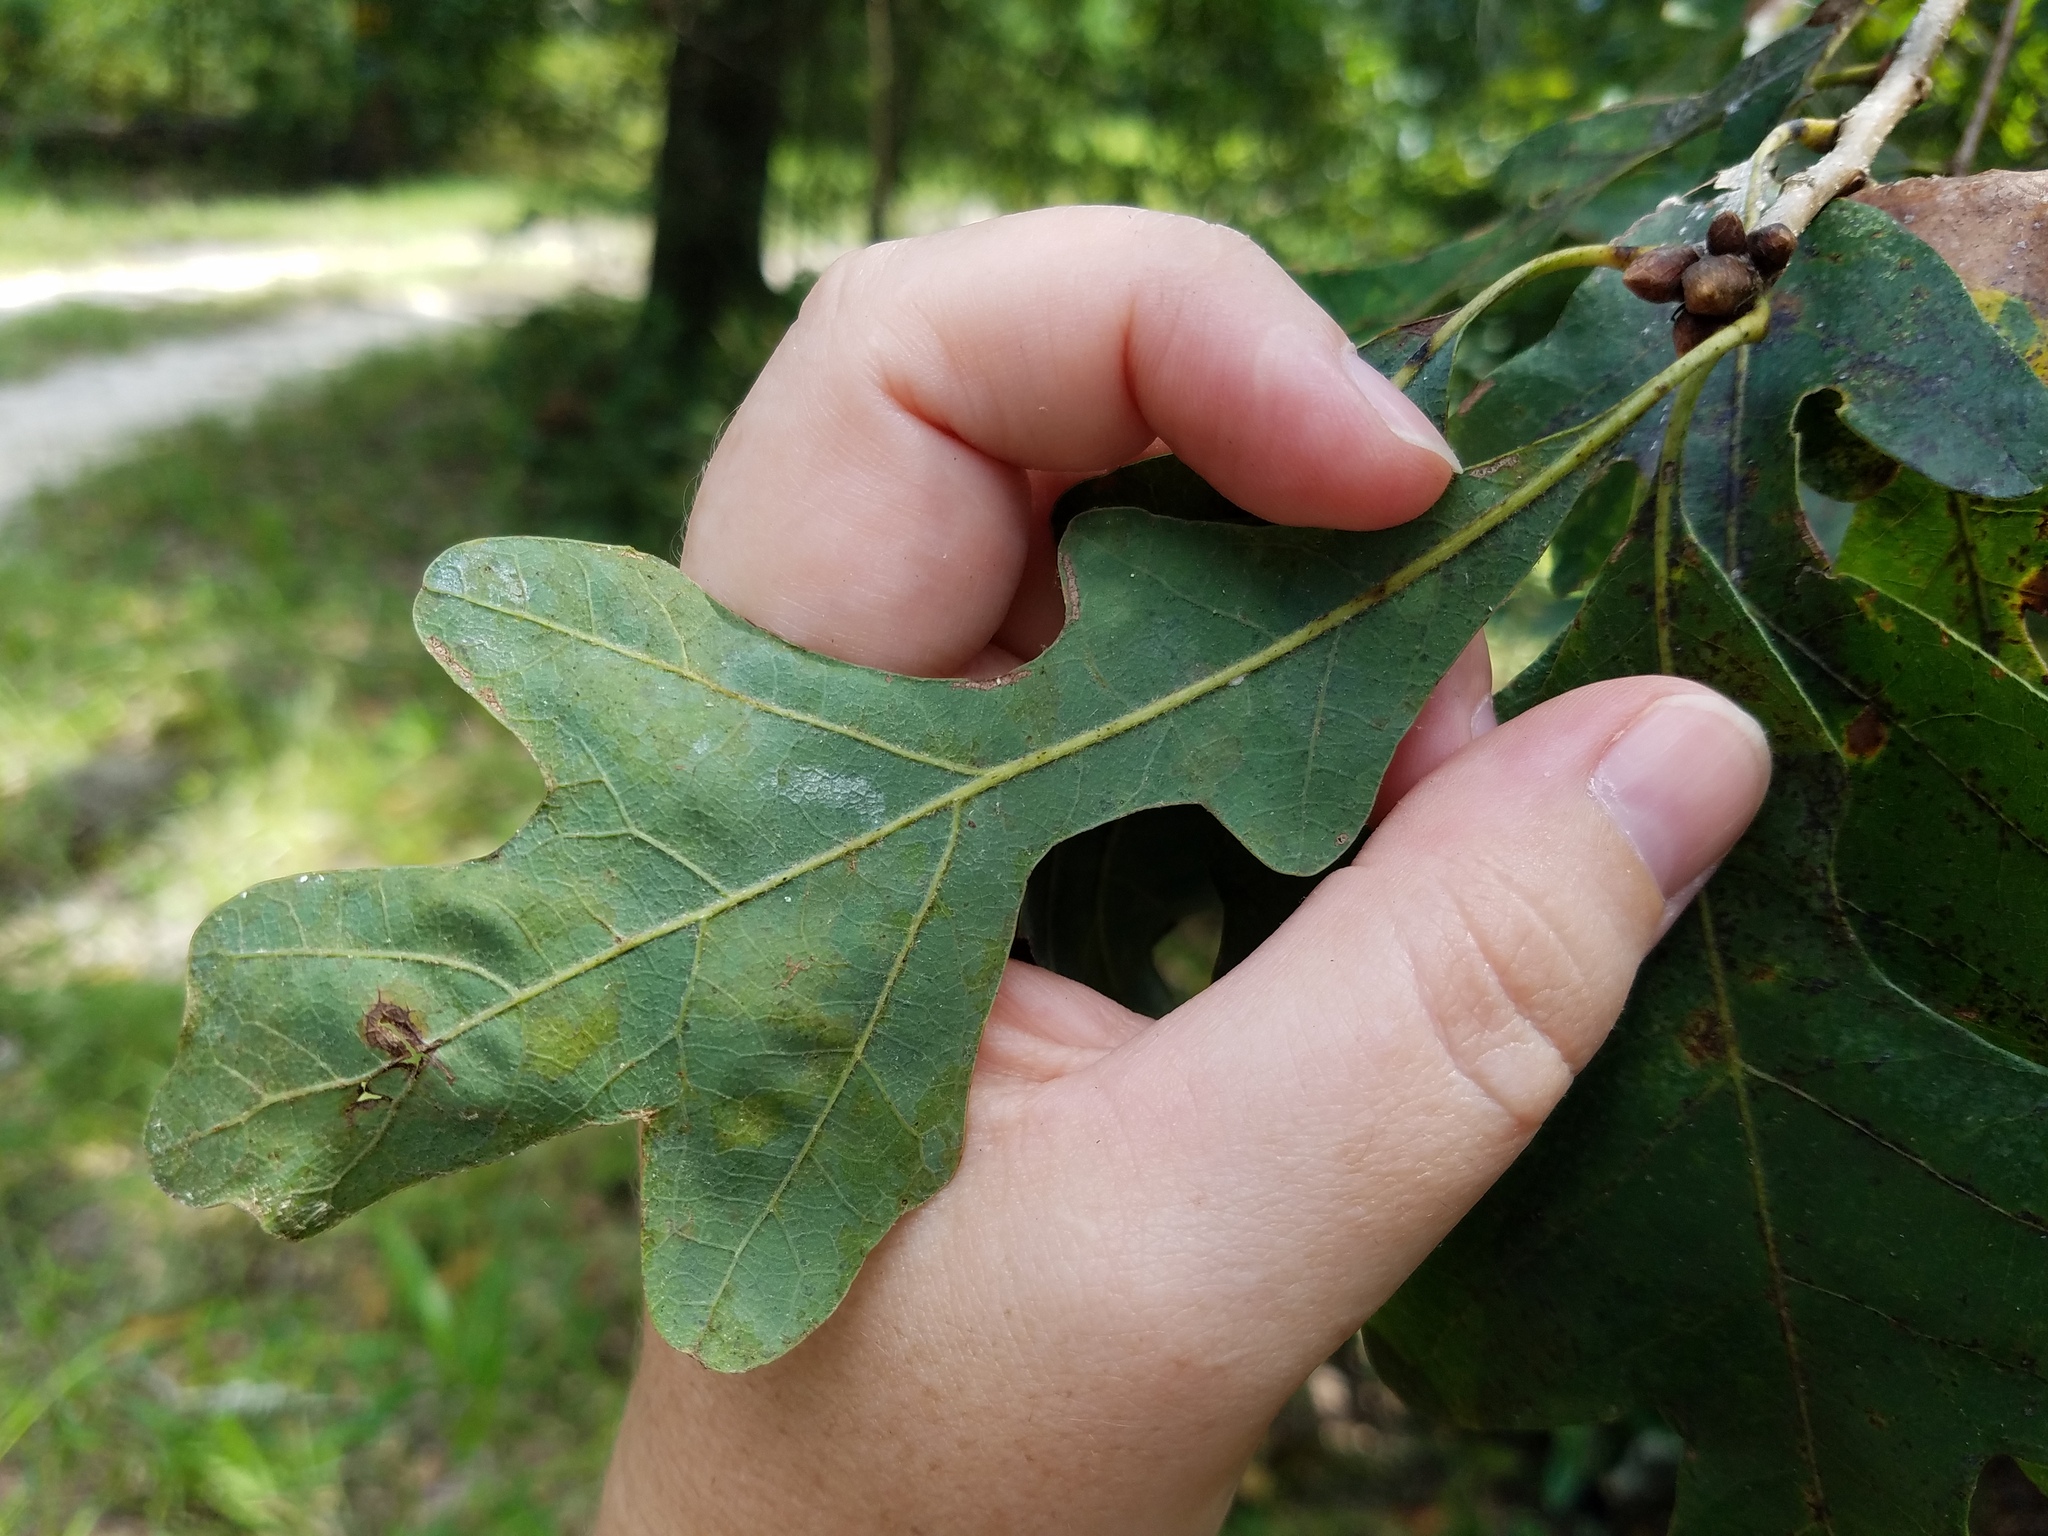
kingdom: Plantae
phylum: Tracheophyta
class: Magnoliopsida
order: Fagales
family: Fagaceae
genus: Quercus
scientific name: Quercus similis
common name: Delta post oak
